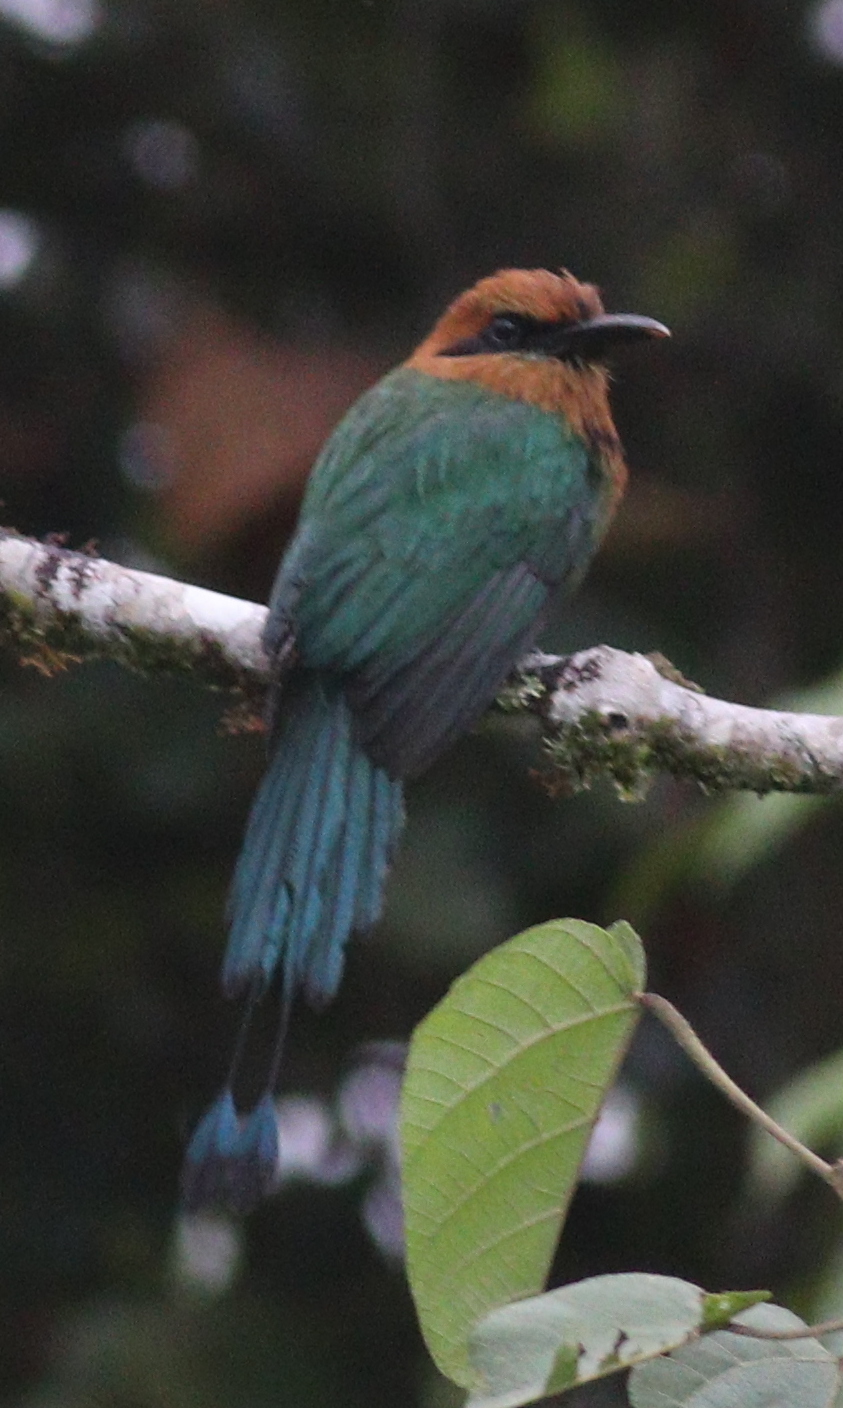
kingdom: Animalia
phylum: Chordata
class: Aves
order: Coraciiformes
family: Momotidae
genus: Electron
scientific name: Electron platyrhynchum
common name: Broad-billed motmot
